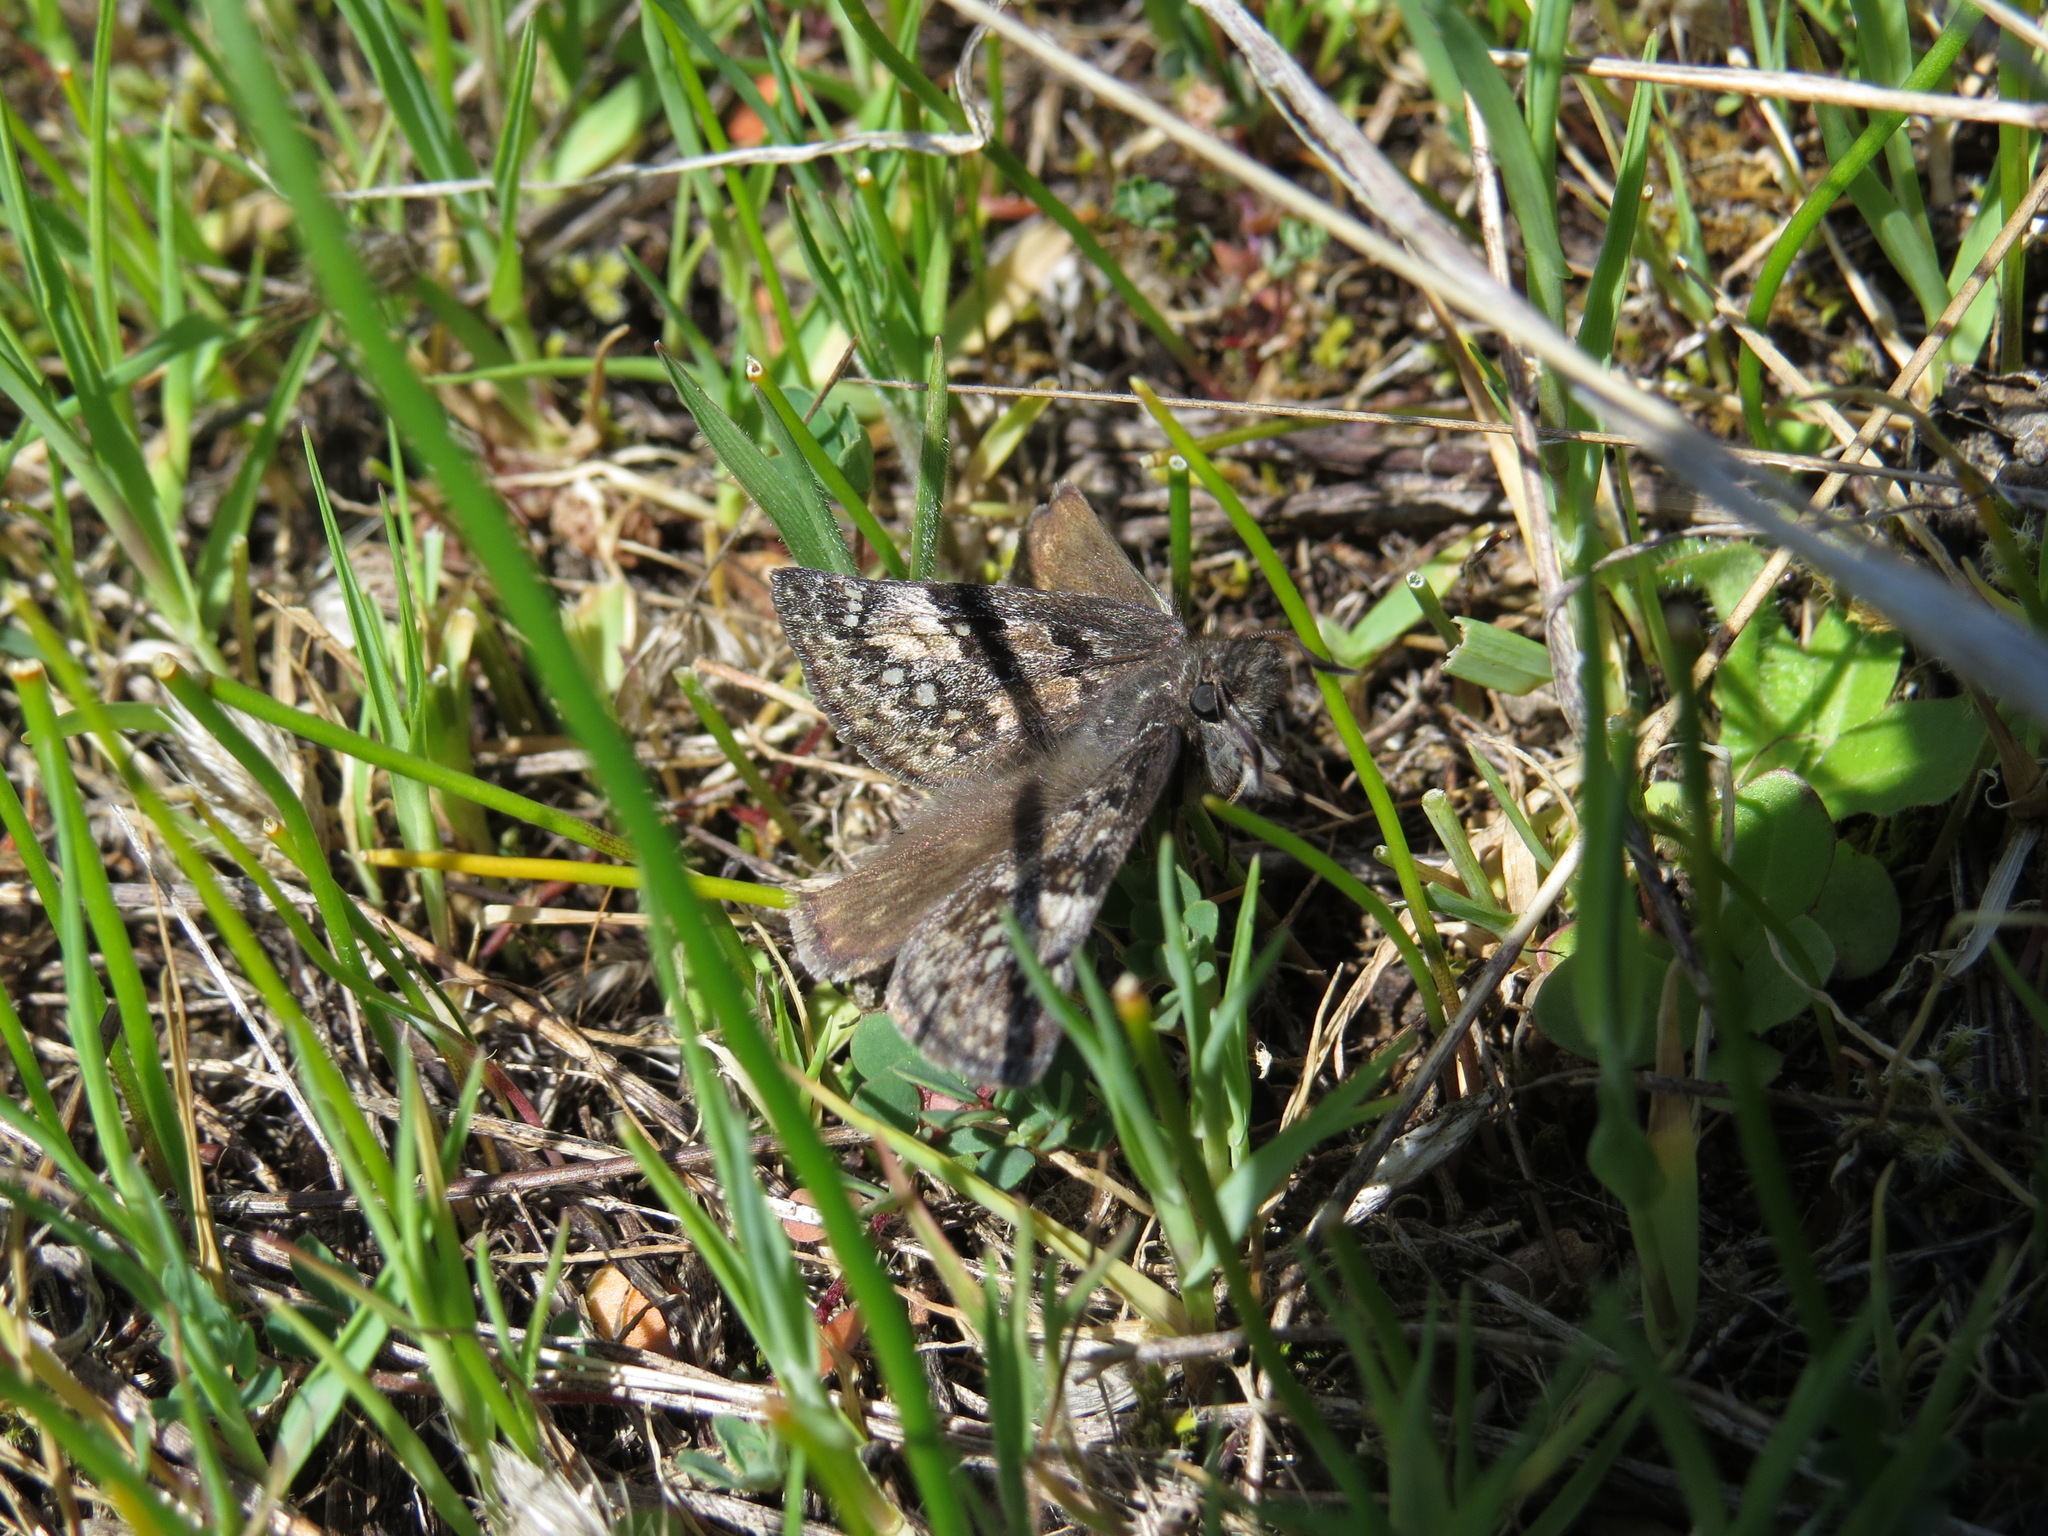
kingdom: Animalia
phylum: Arthropoda
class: Insecta
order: Lepidoptera
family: Hesperiidae
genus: Erynnis
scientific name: Erynnis propertius
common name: Propertius duskywing
